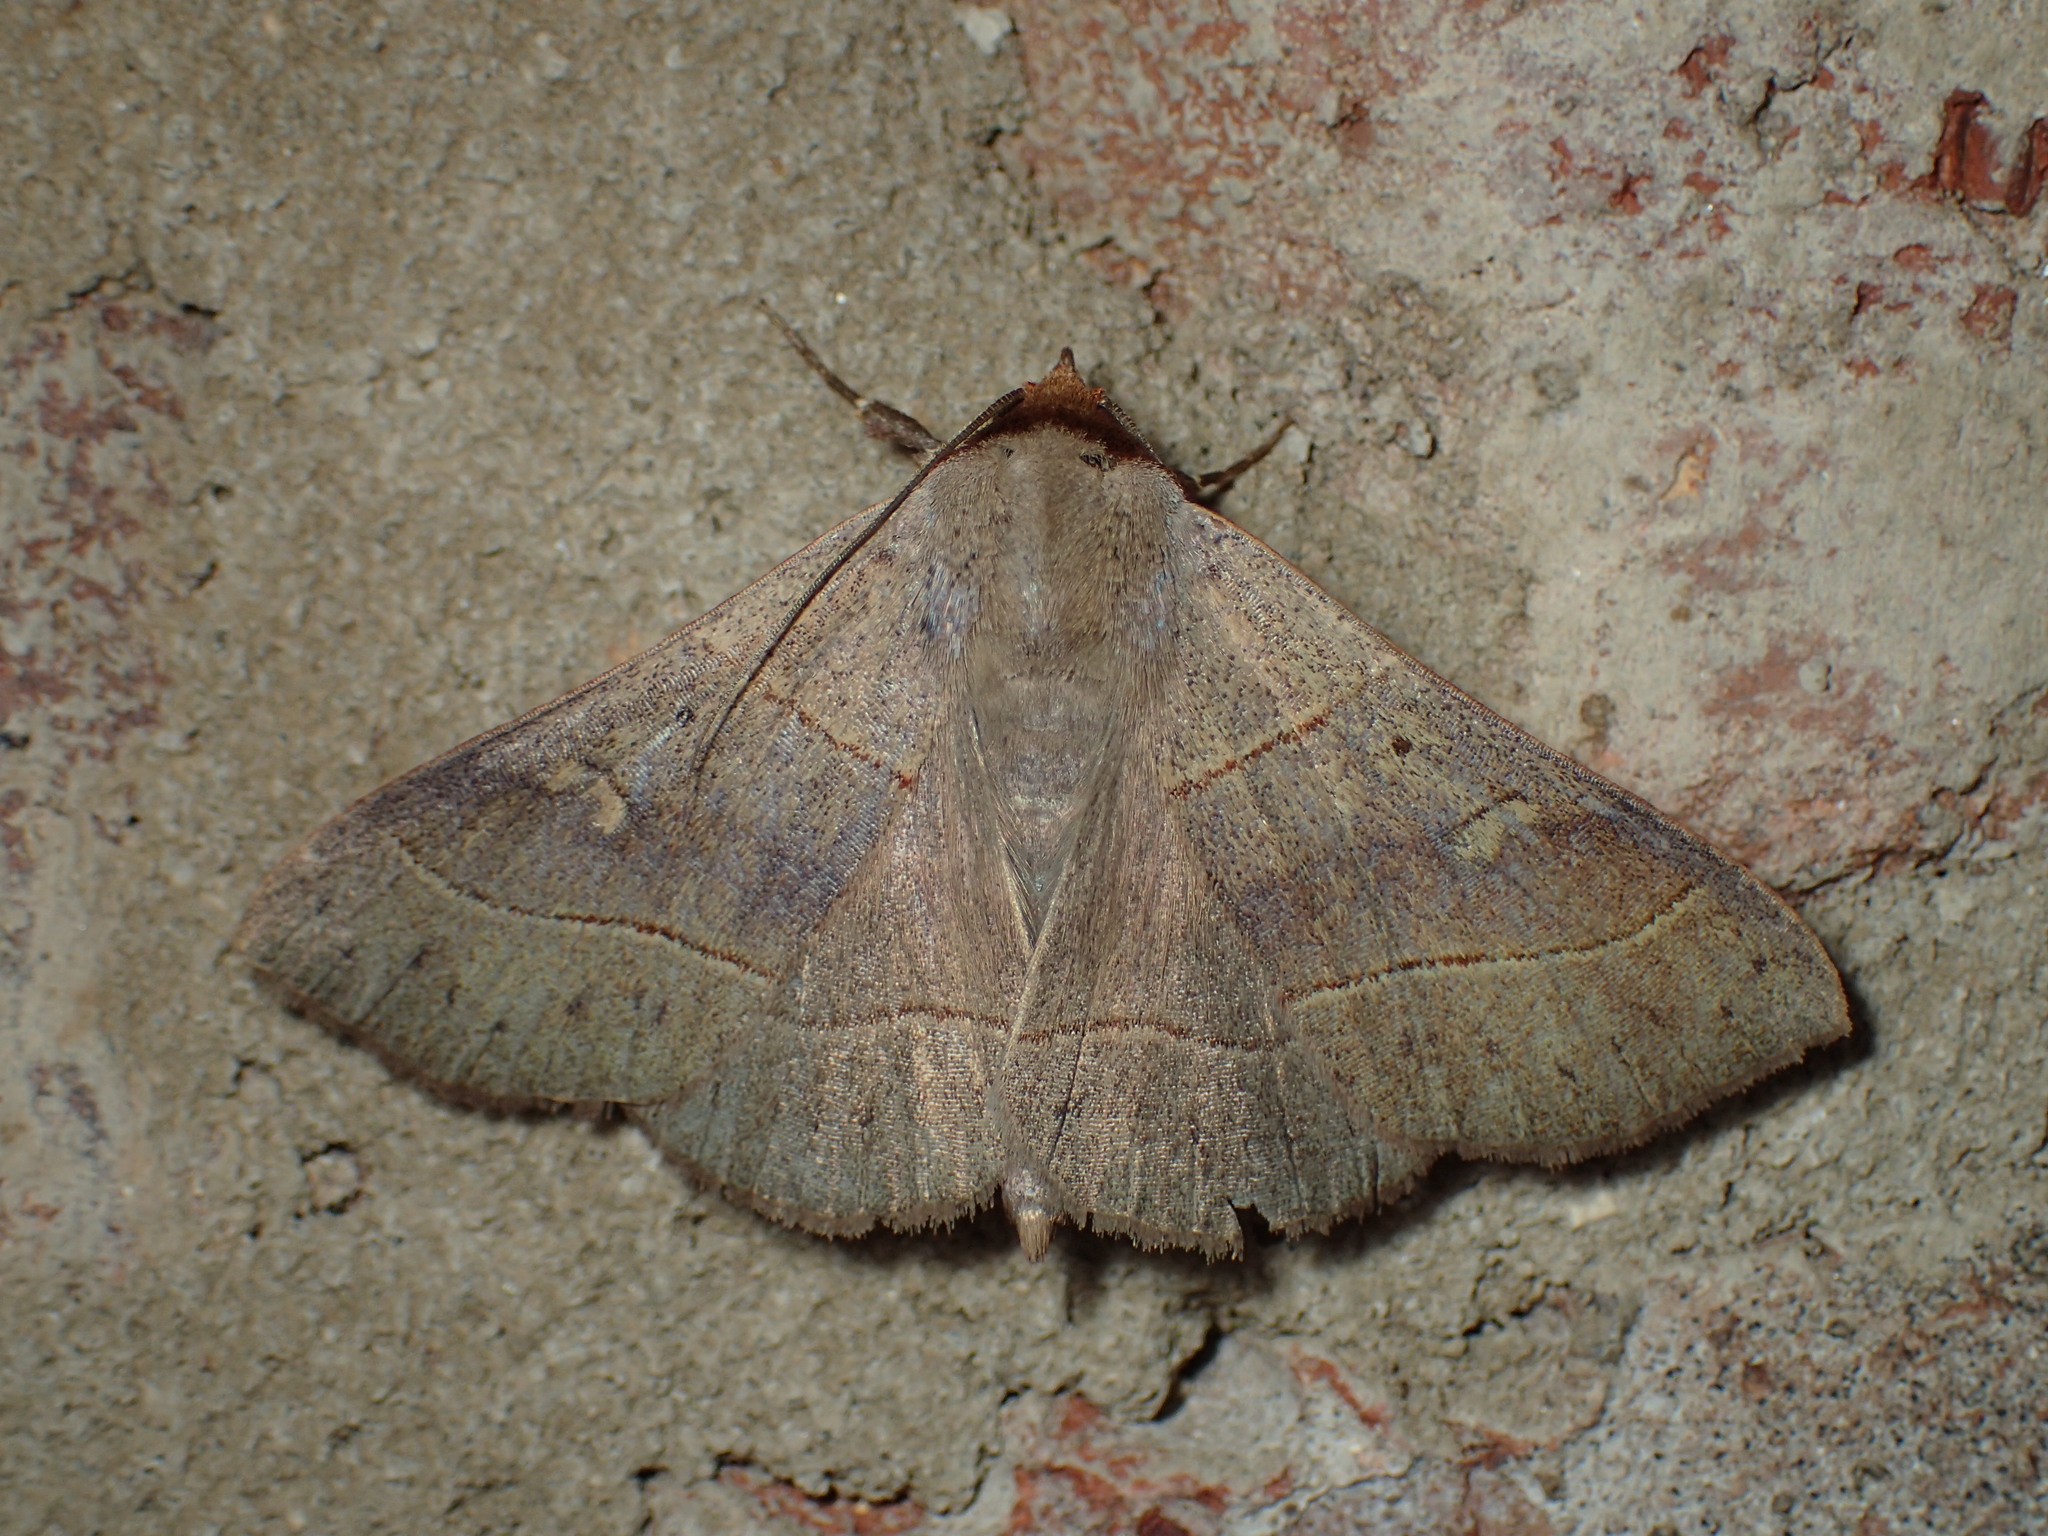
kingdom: Animalia
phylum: Arthropoda
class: Insecta
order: Lepidoptera
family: Erebidae
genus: Panopoda
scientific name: Panopoda rufimargo
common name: Red-lined panopoda moth
